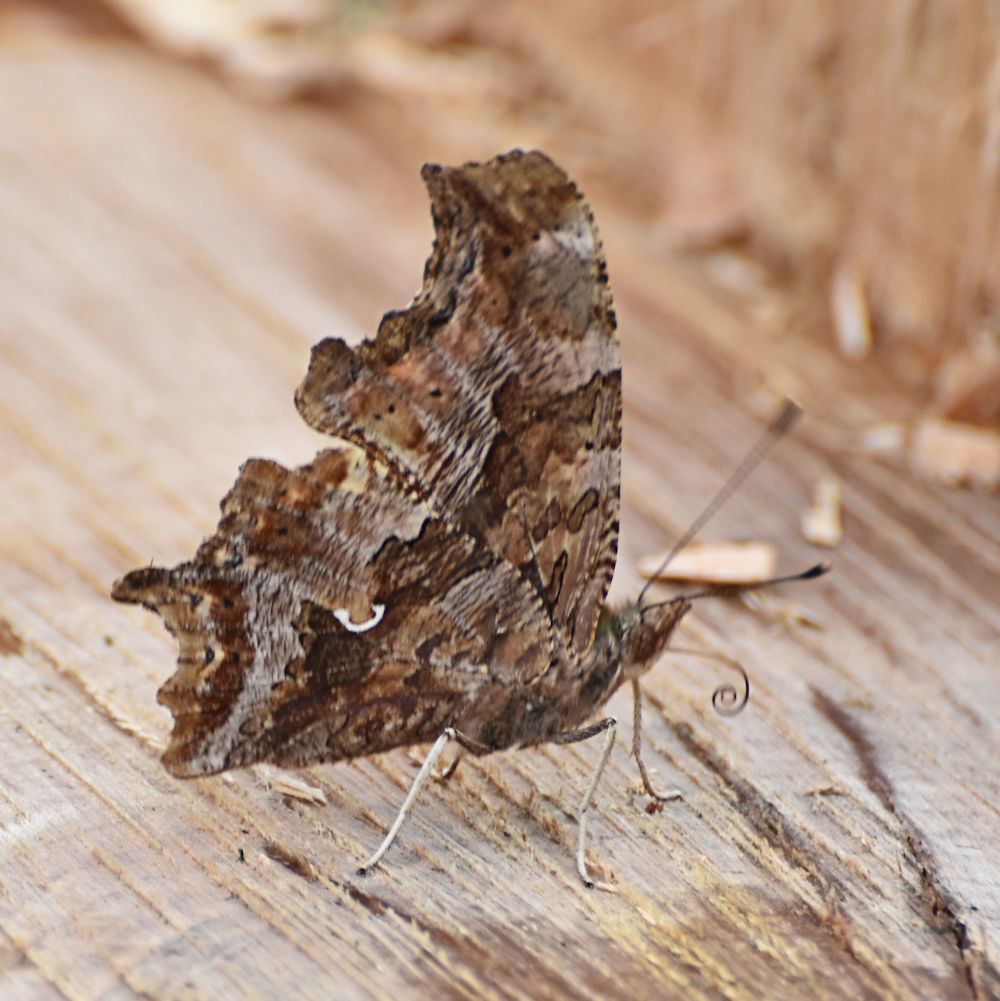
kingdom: Animalia
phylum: Arthropoda
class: Insecta
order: Lepidoptera
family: Nymphalidae
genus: Polygonia
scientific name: Polygonia comma
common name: Eastern comma
